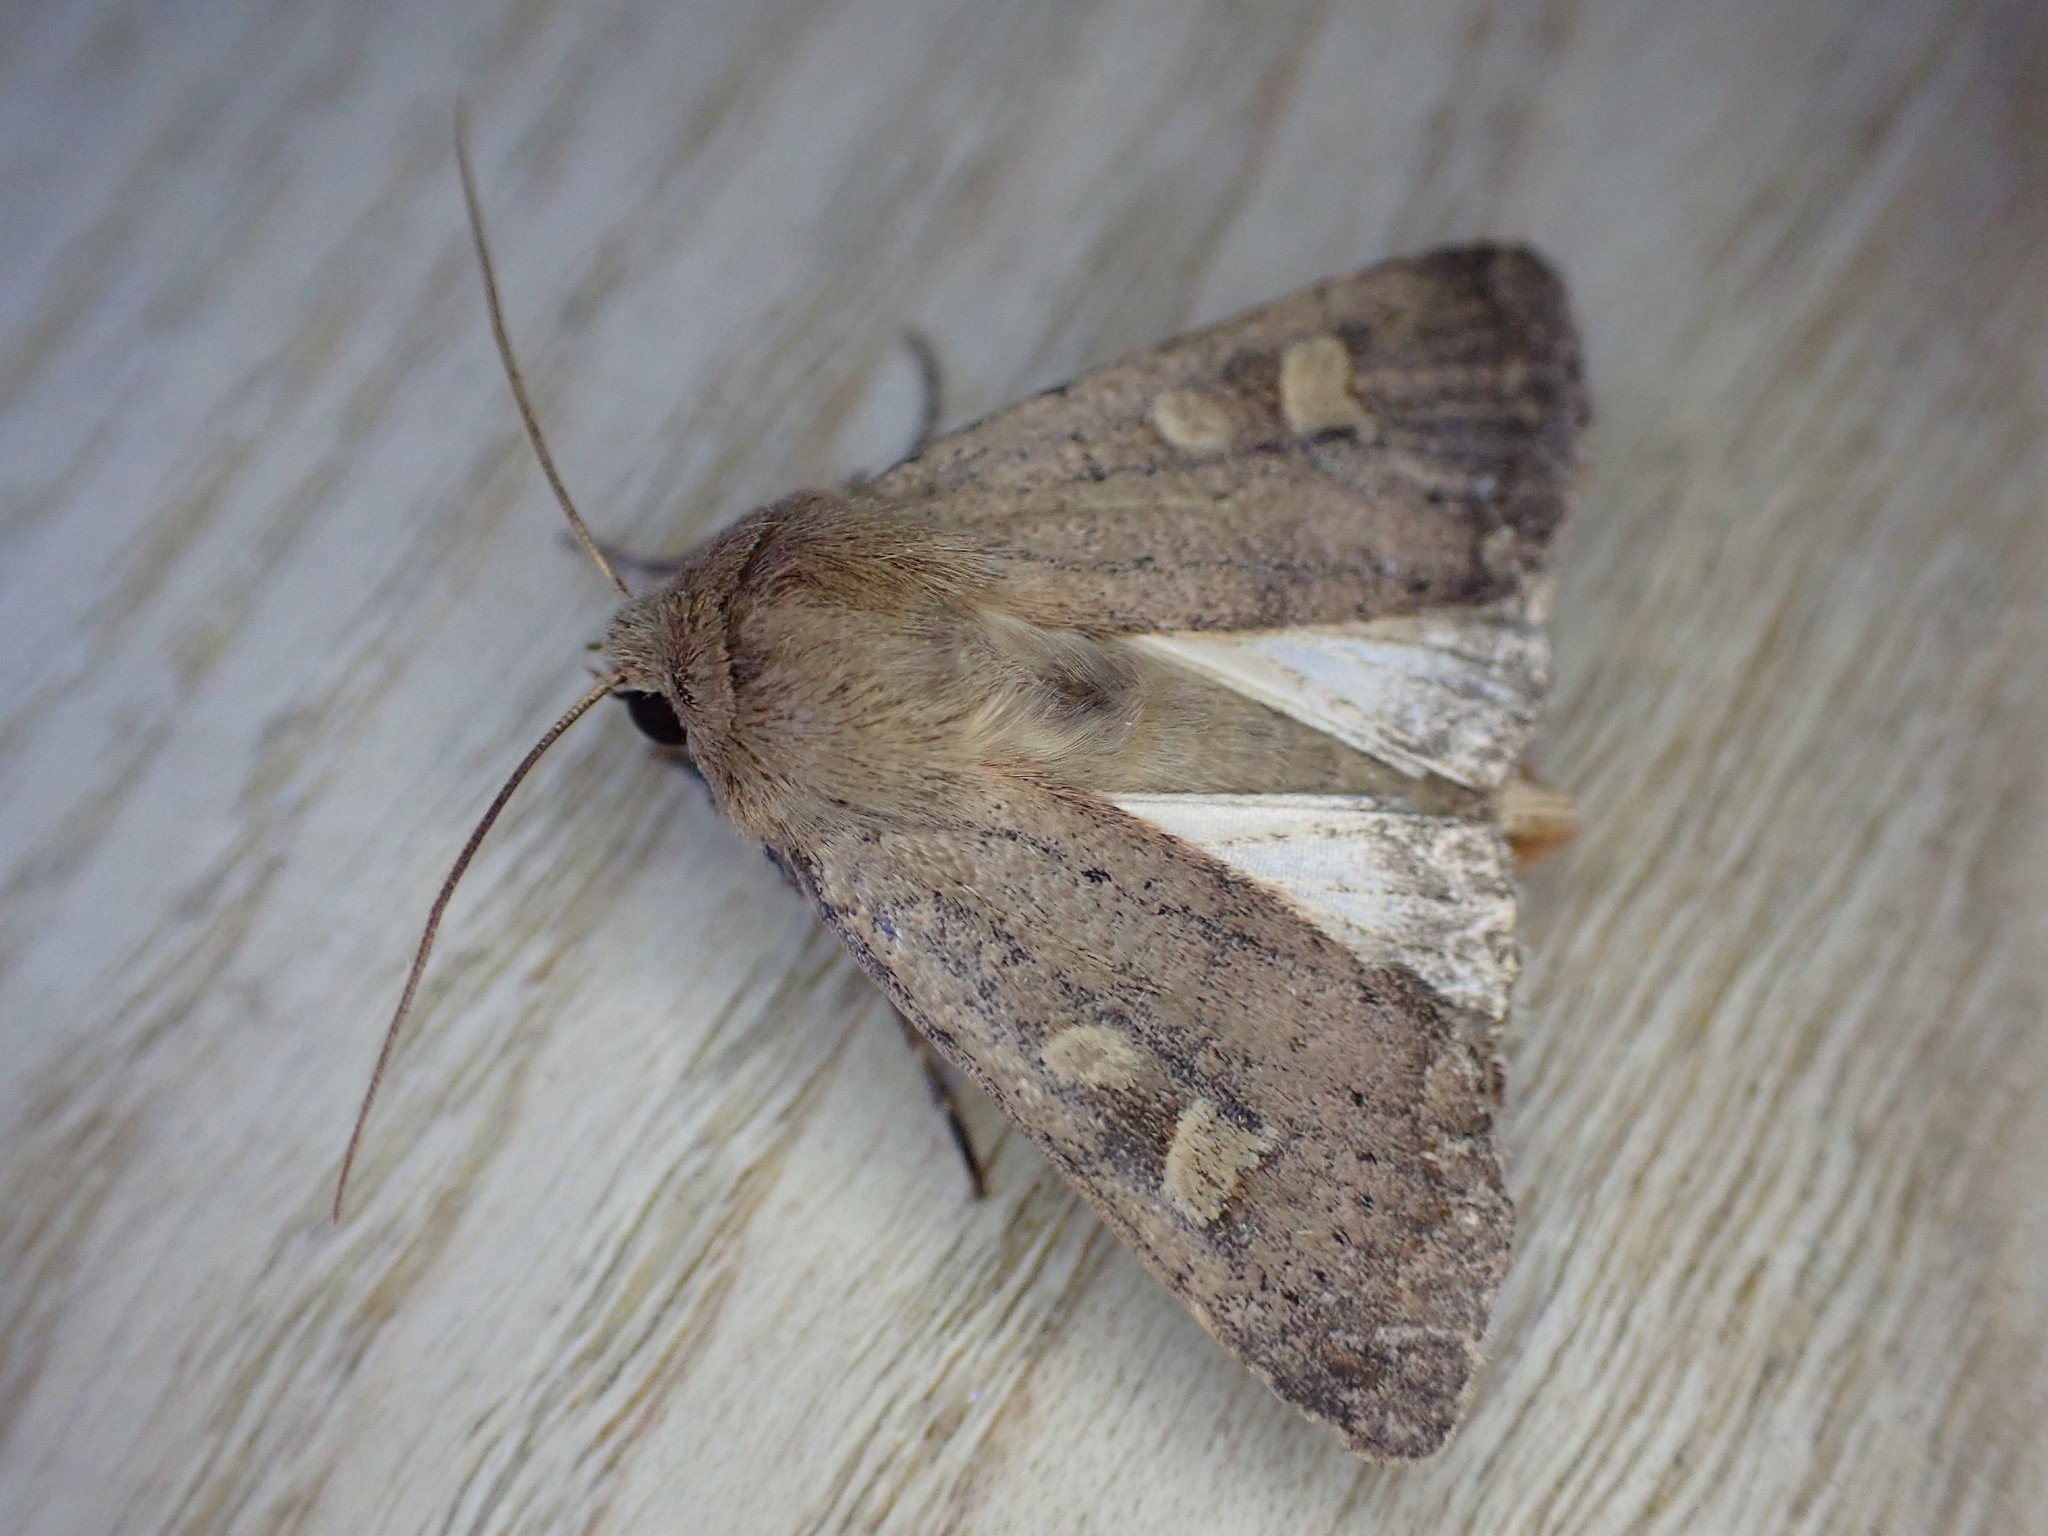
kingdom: Animalia
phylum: Arthropoda
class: Insecta
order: Lepidoptera
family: Noctuidae
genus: Xestia
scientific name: Xestia xanthographa
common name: Square-spot rustic
